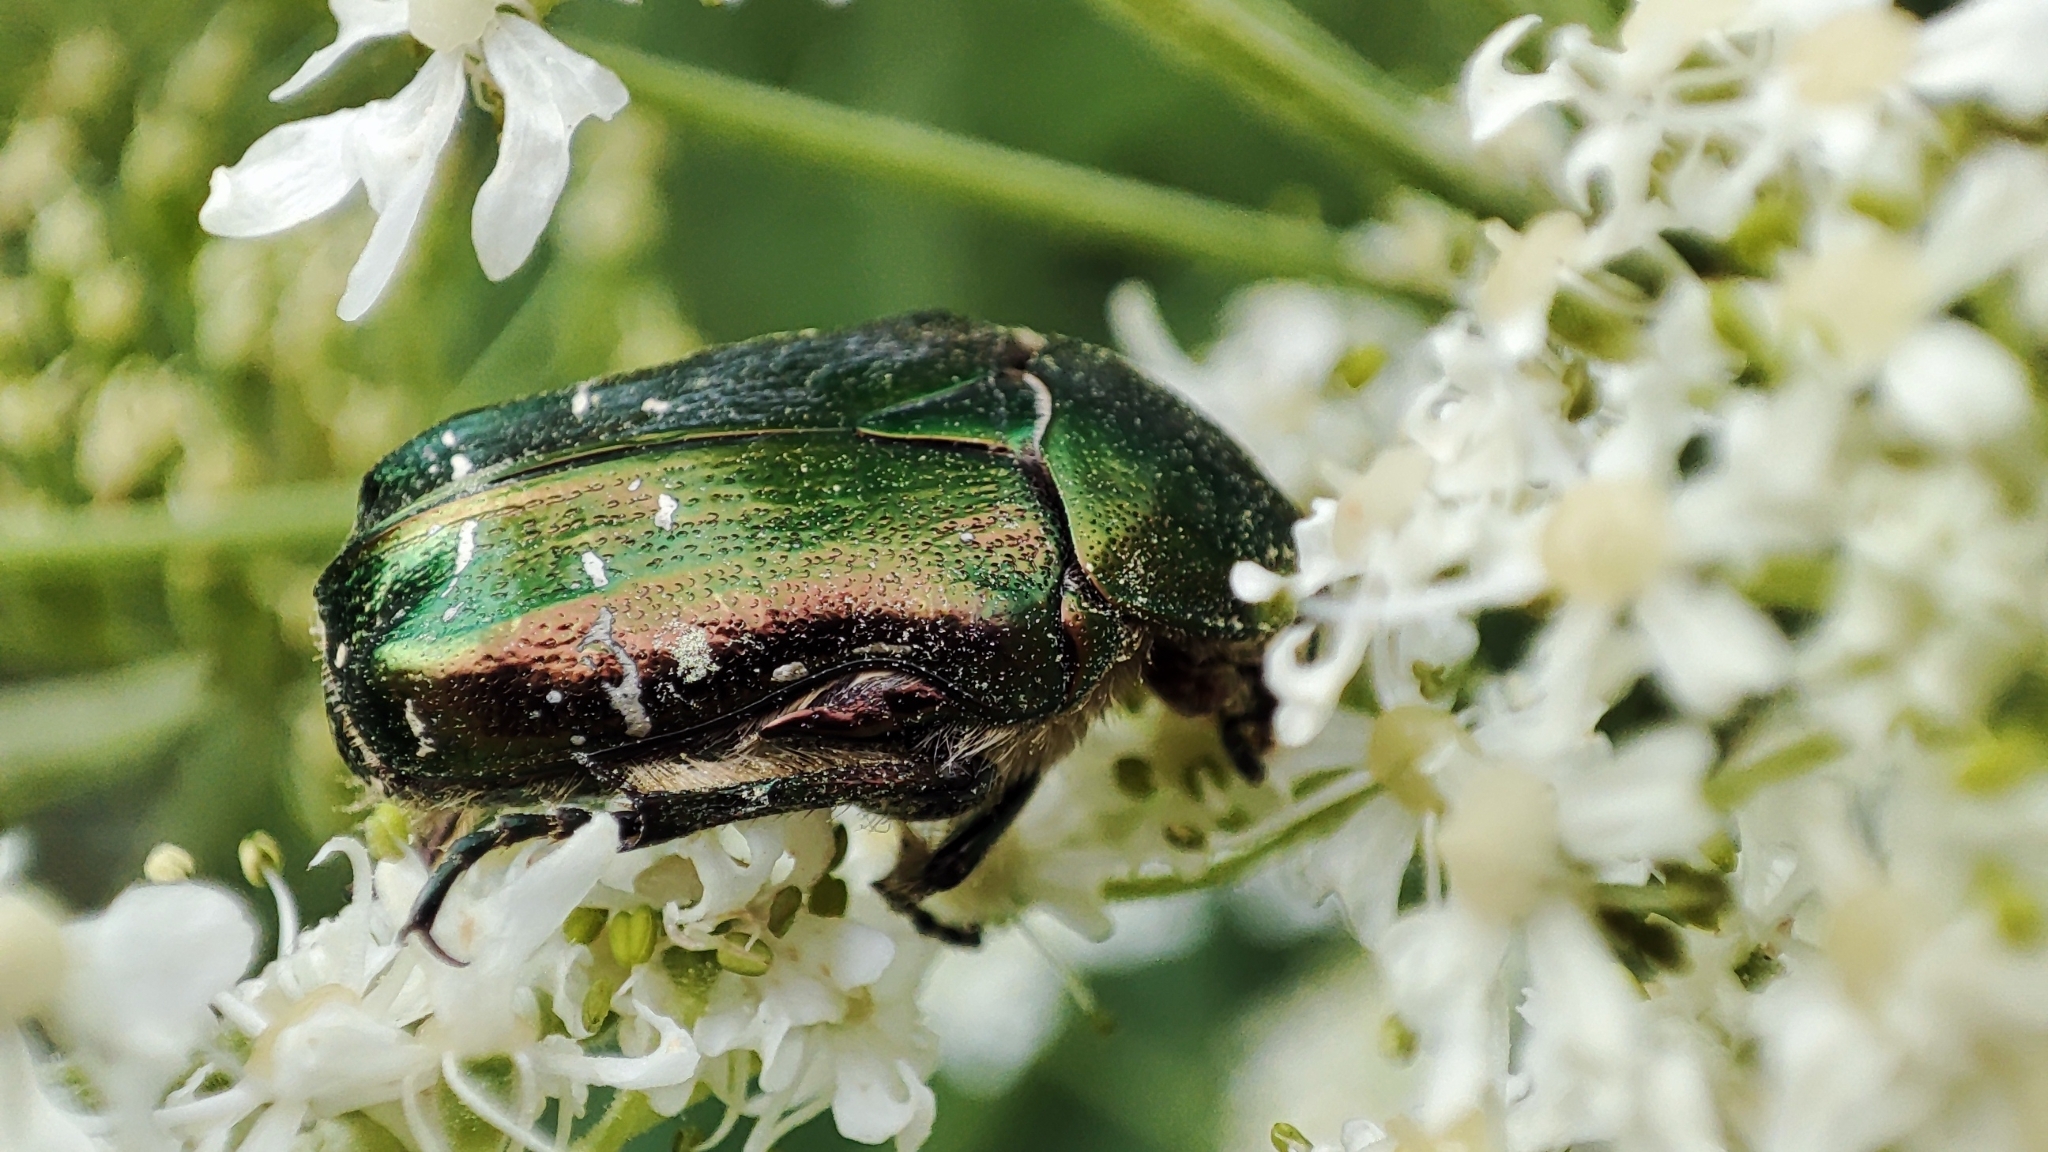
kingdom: Animalia
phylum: Arthropoda
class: Insecta
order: Coleoptera
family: Scarabaeidae
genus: Cetonia
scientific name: Cetonia aurata
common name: Rose chafer
